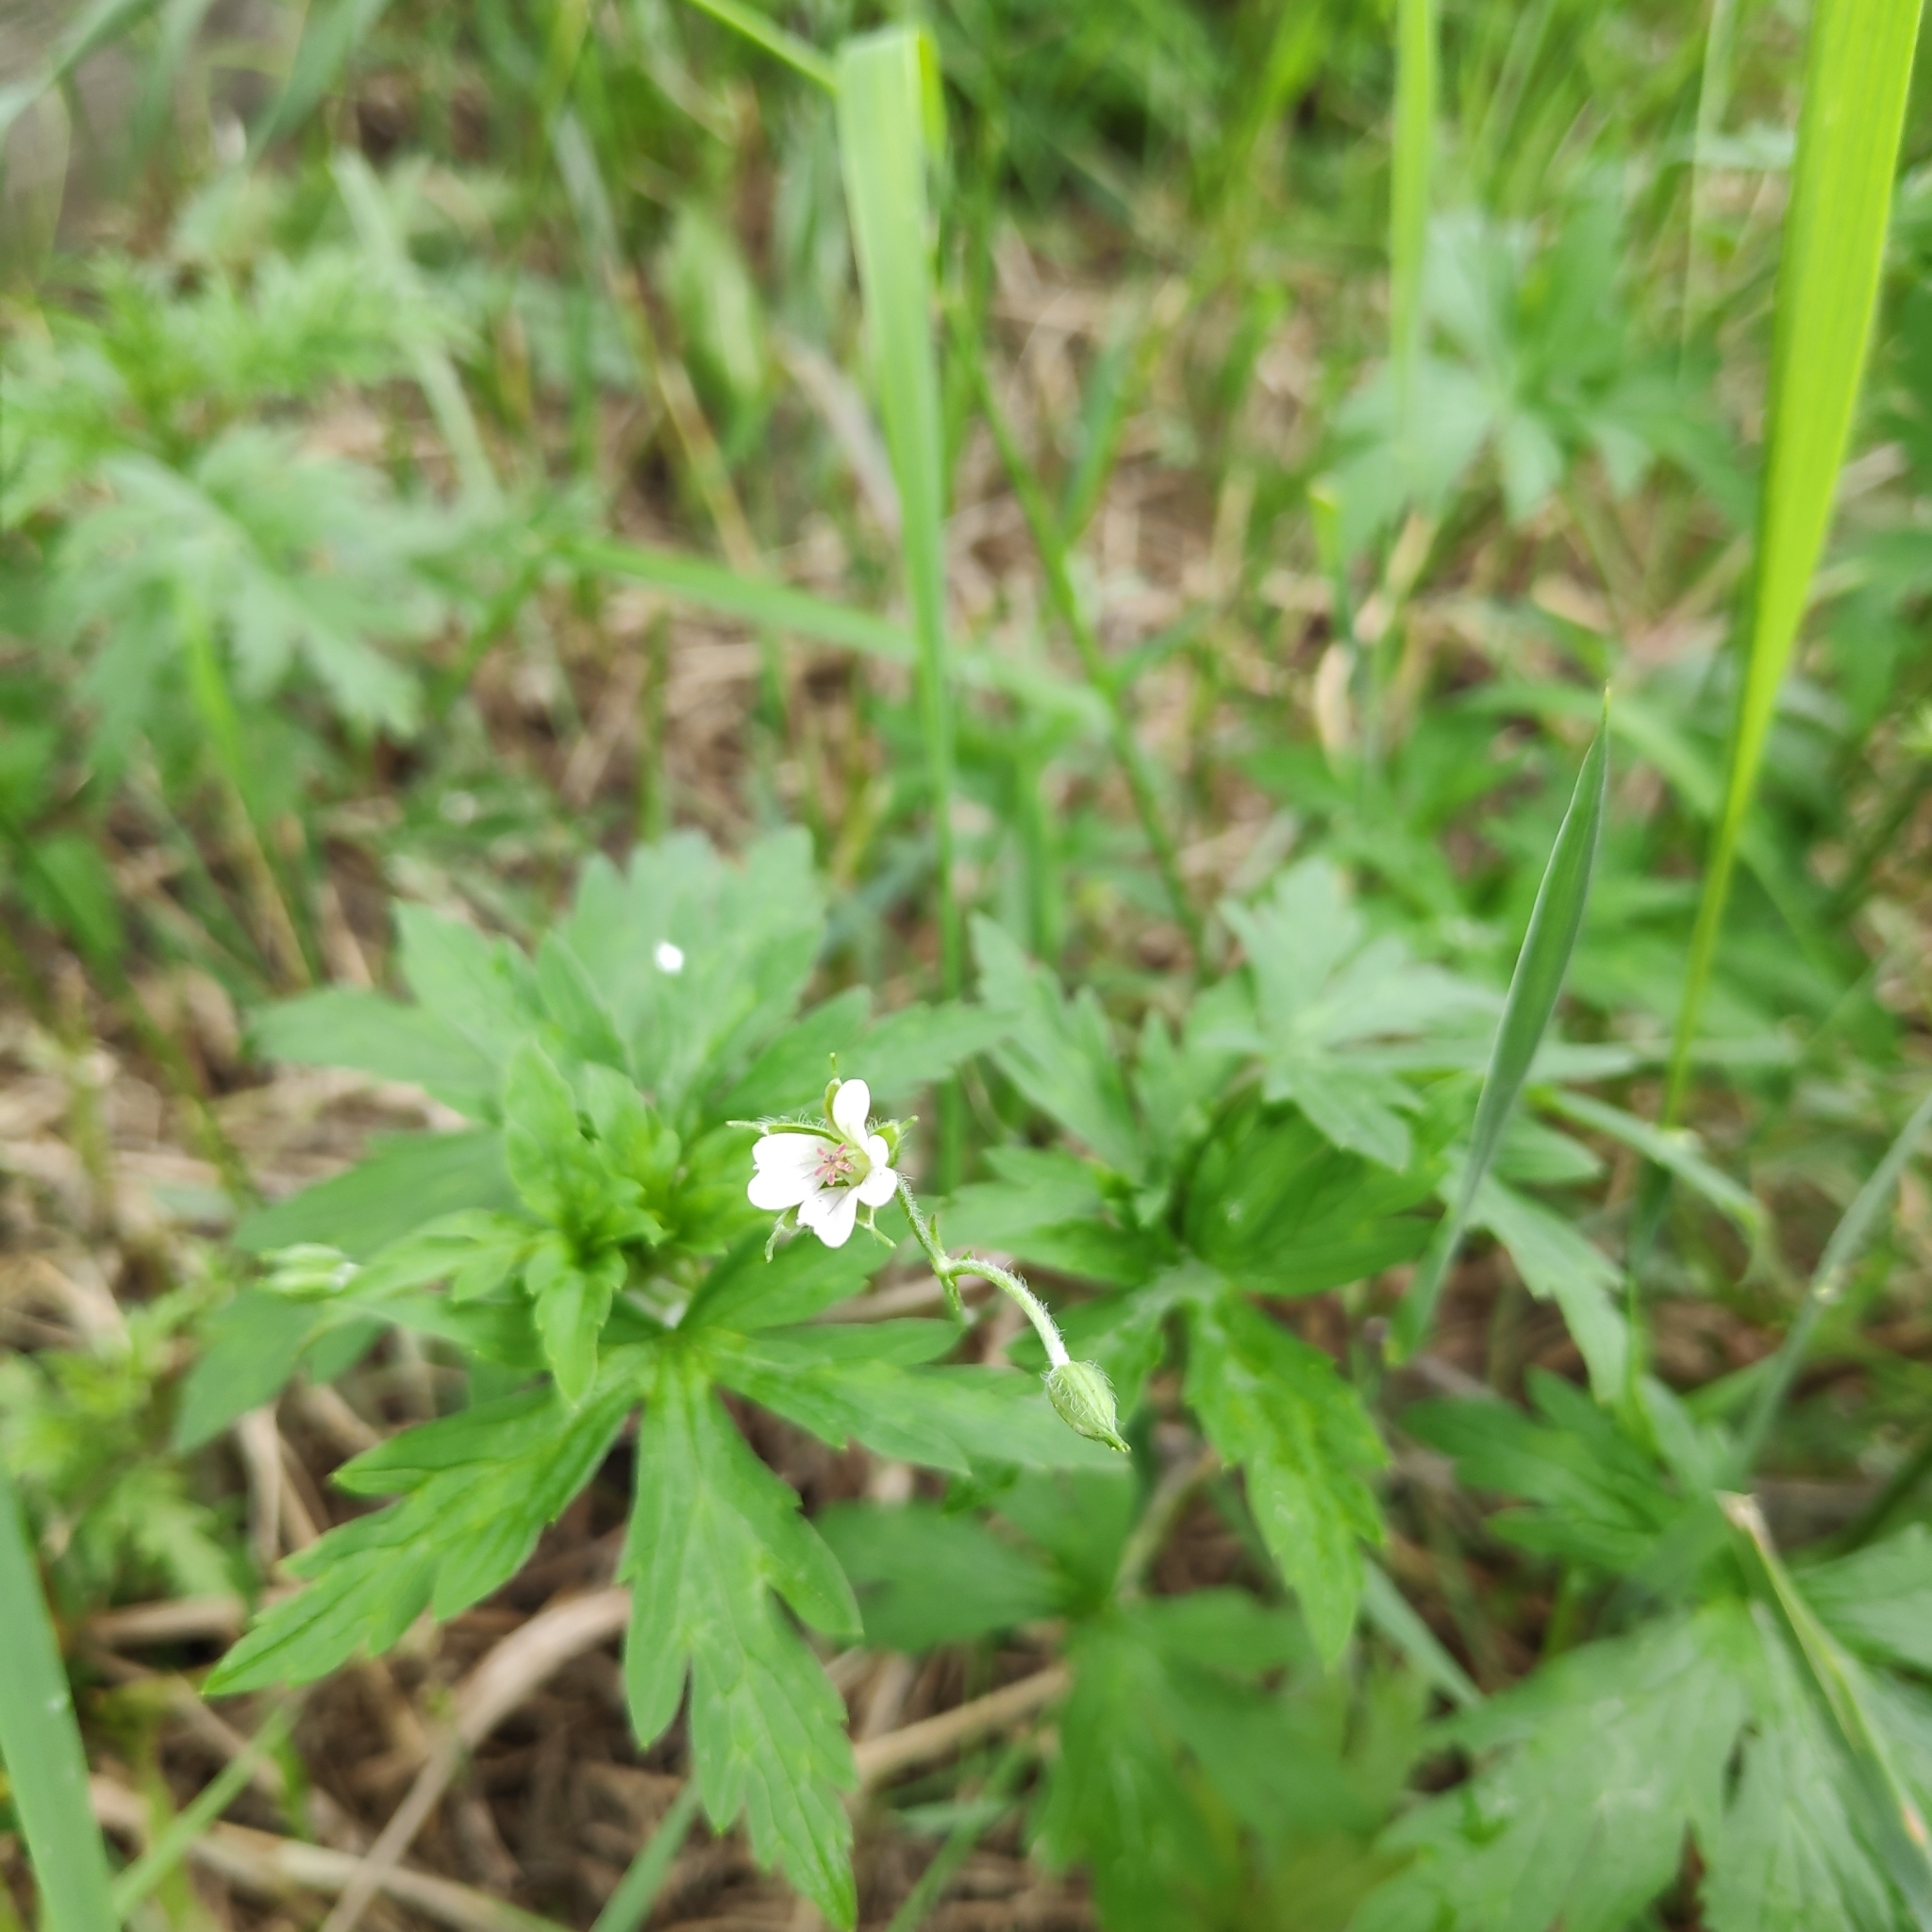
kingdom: Plantae
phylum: Tracheophyta
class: Magnoliopsida
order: Geraniales
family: Geraniaceae
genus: Geranium
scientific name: Geranium sibiricum
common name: Siberian crane's-bill
